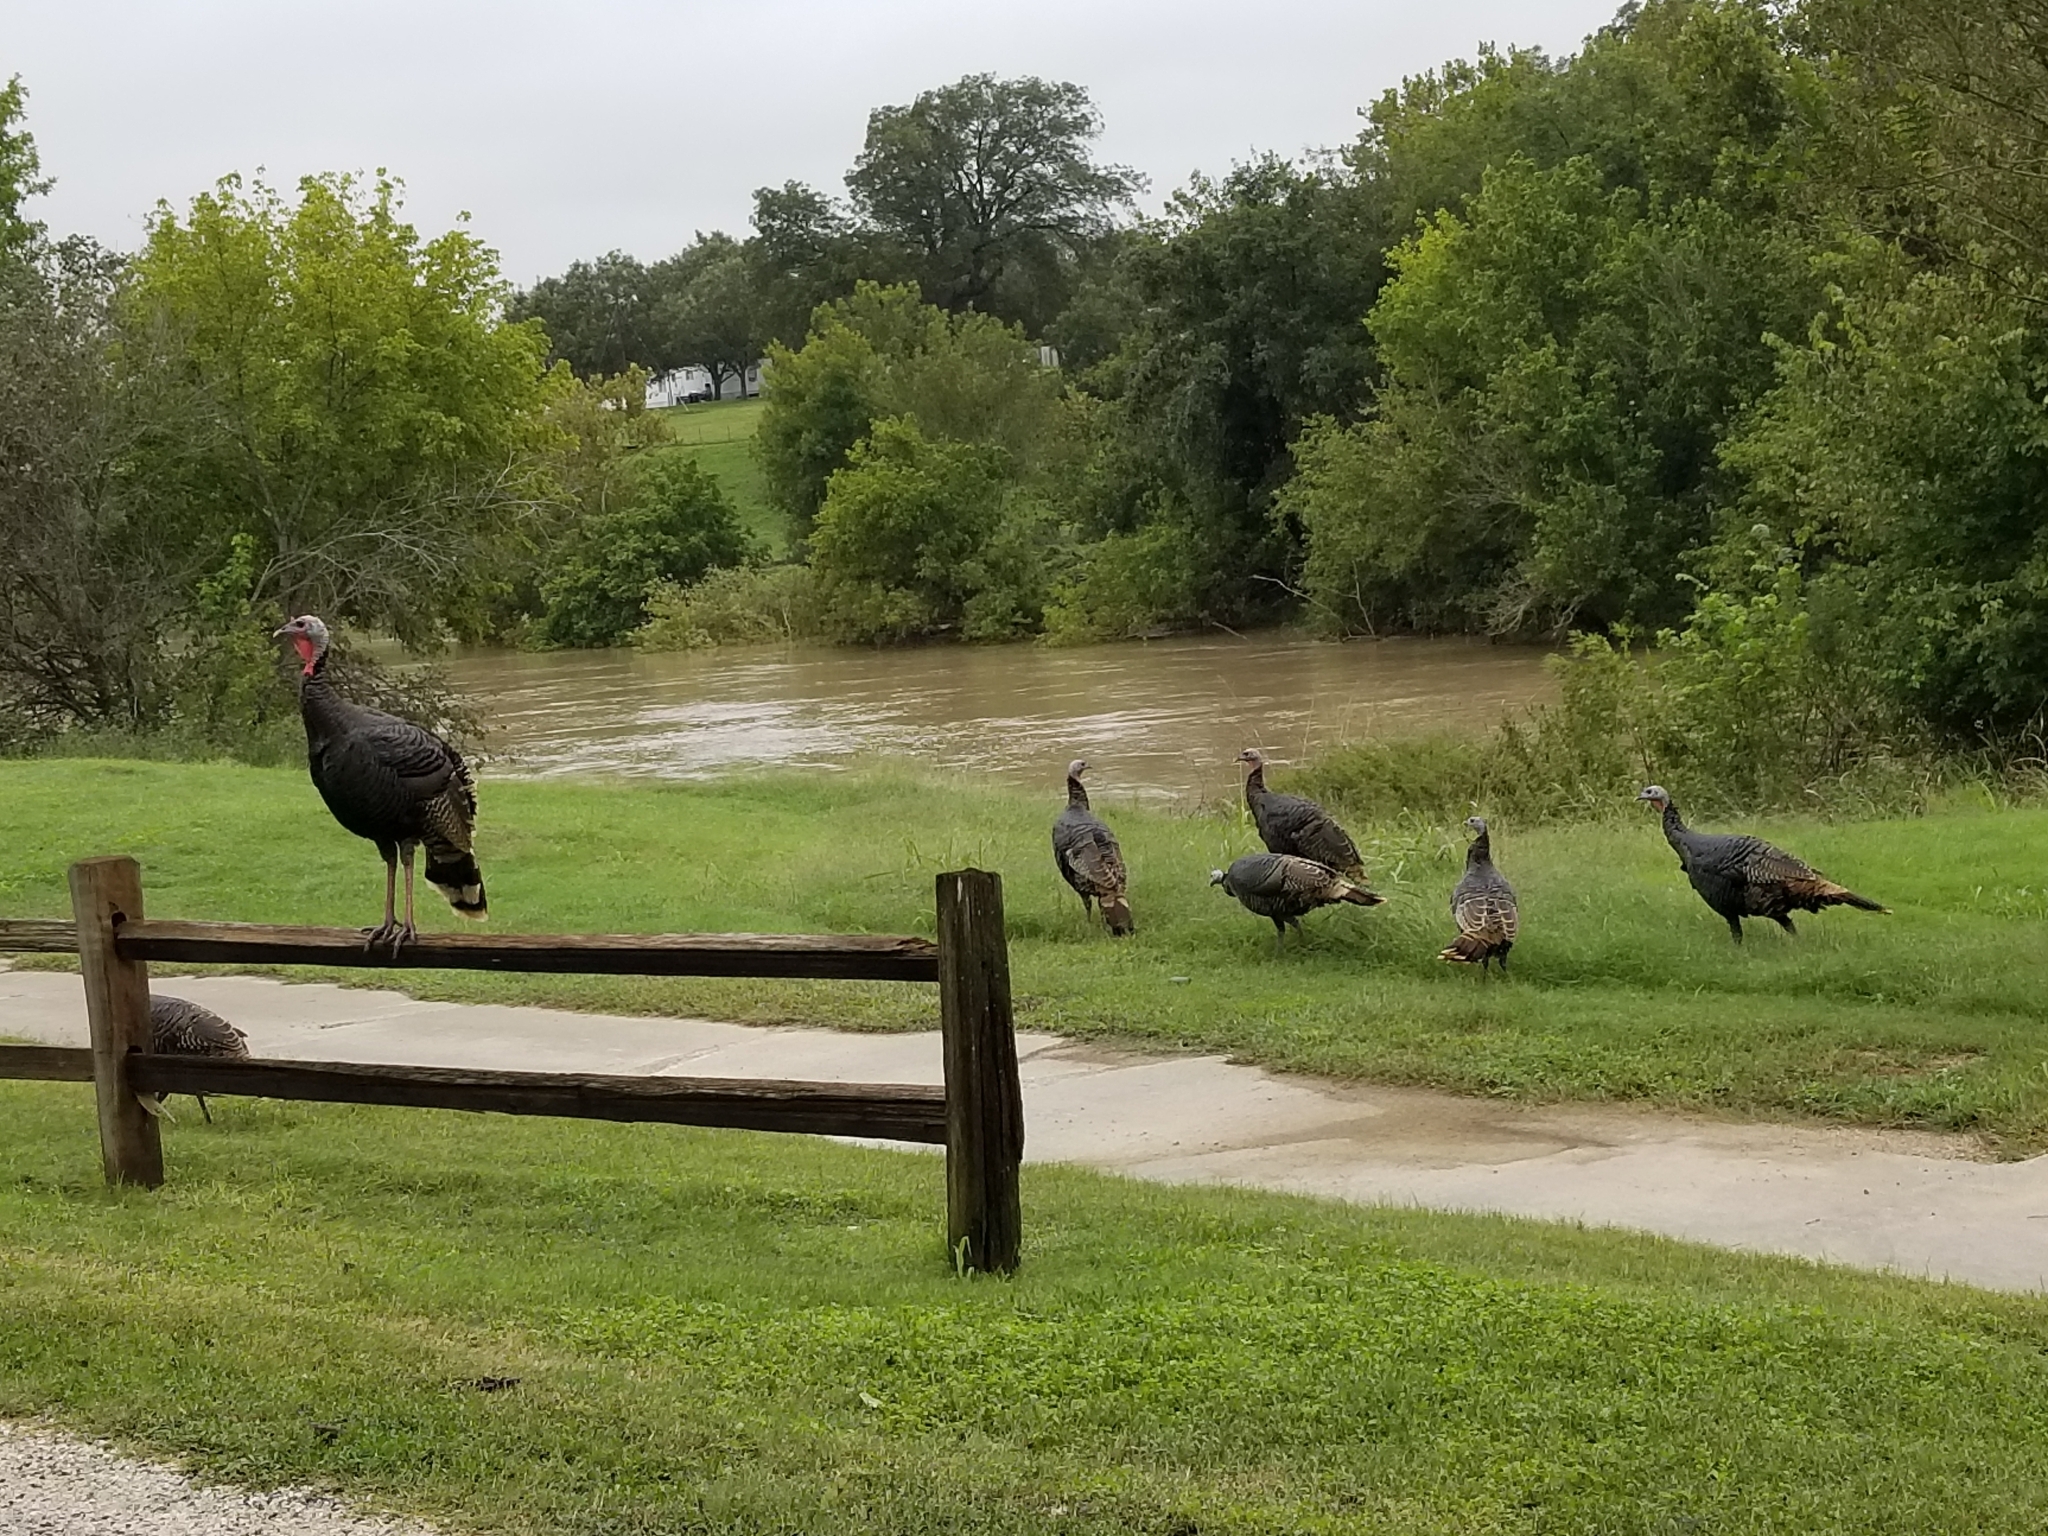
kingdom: Animalia
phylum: Chordata
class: Aves
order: Galliformes
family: Phasianidae
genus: Meleagris
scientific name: Meleagris gallopavo
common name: Wild turkey
